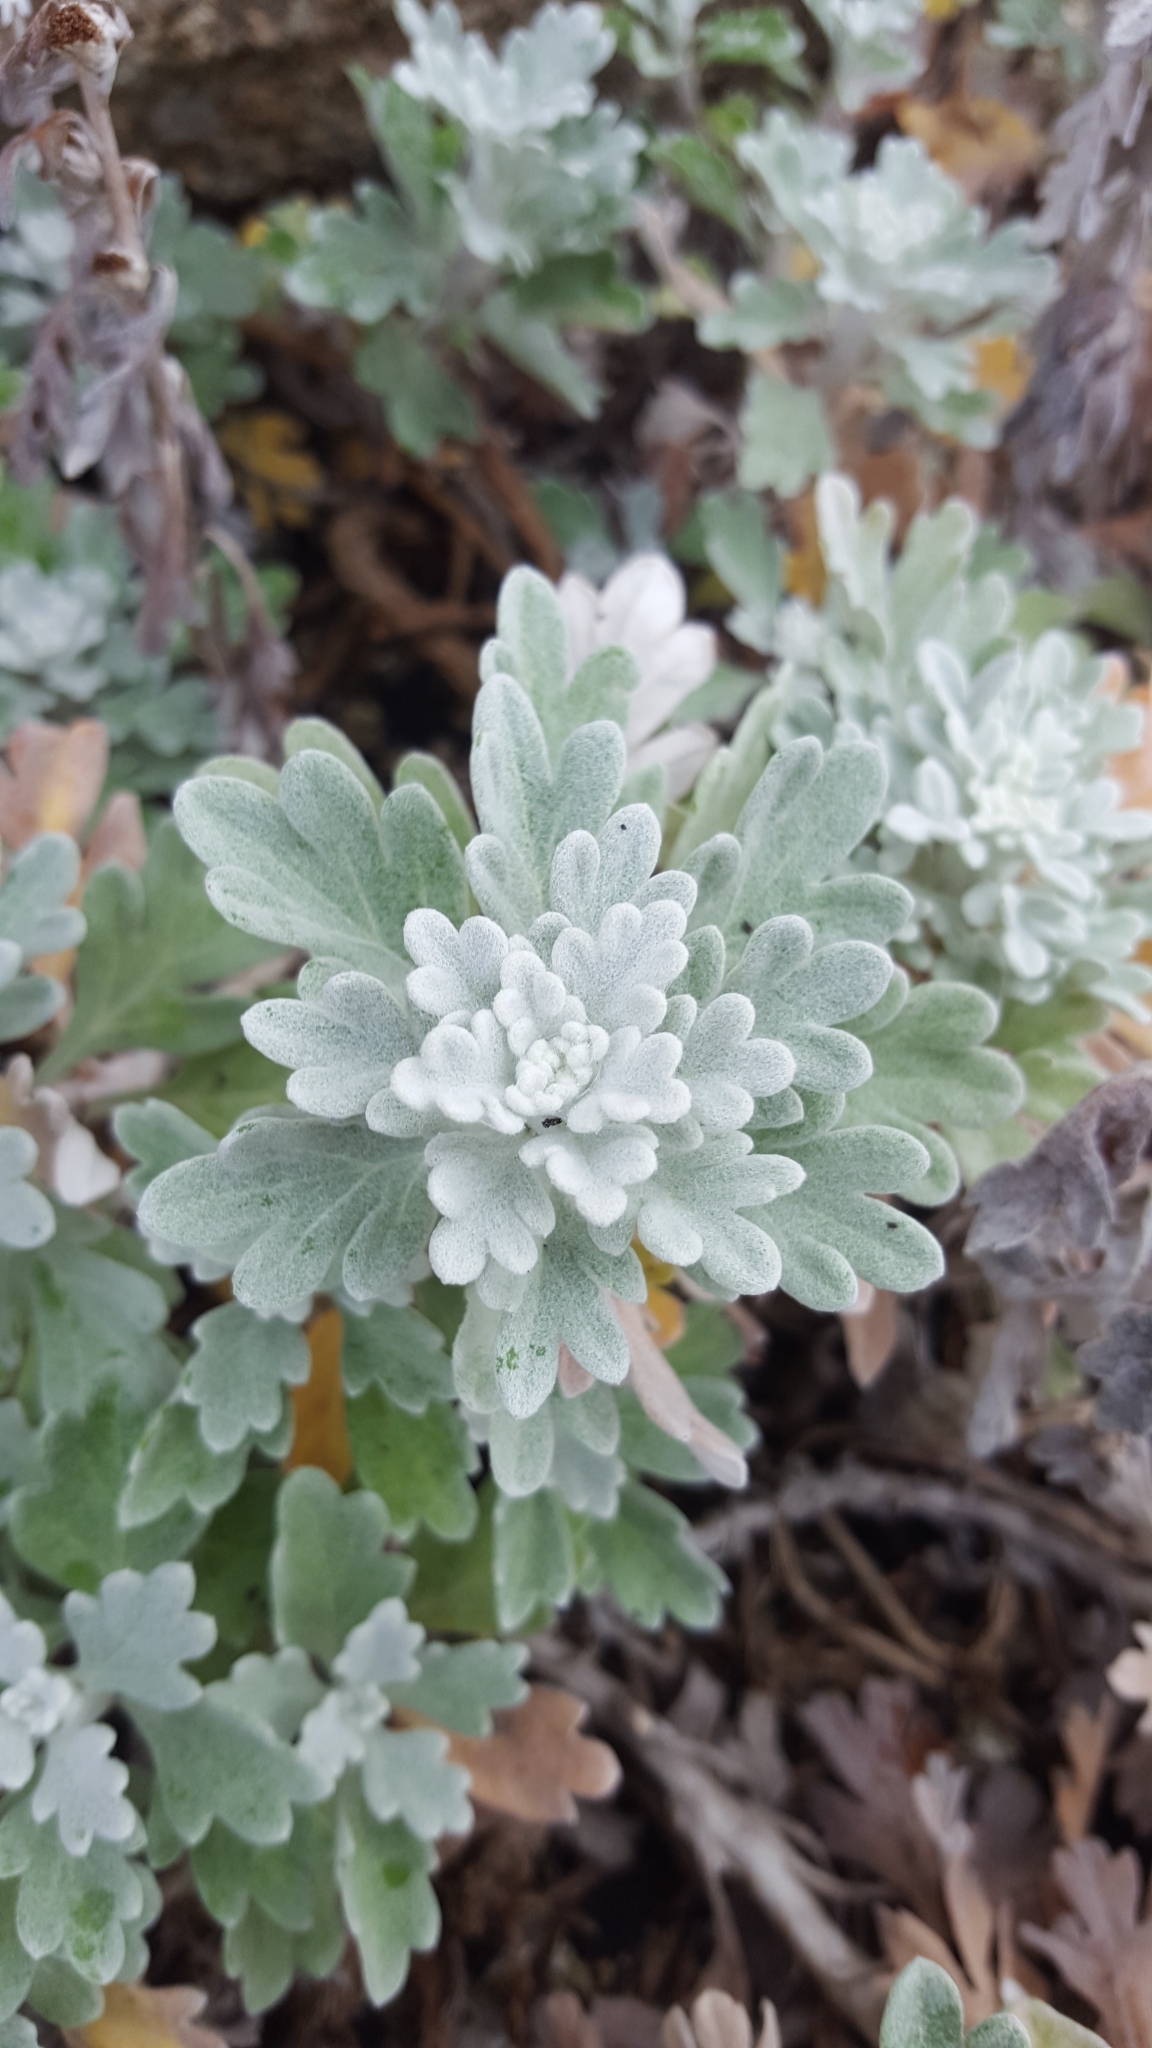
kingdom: Plantae
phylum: Tracheophyta
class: Magnoliopsida
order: Asterales
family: Asteraceae
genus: Artemisia
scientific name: Artemisia stelleriana
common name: Beach wormwood
